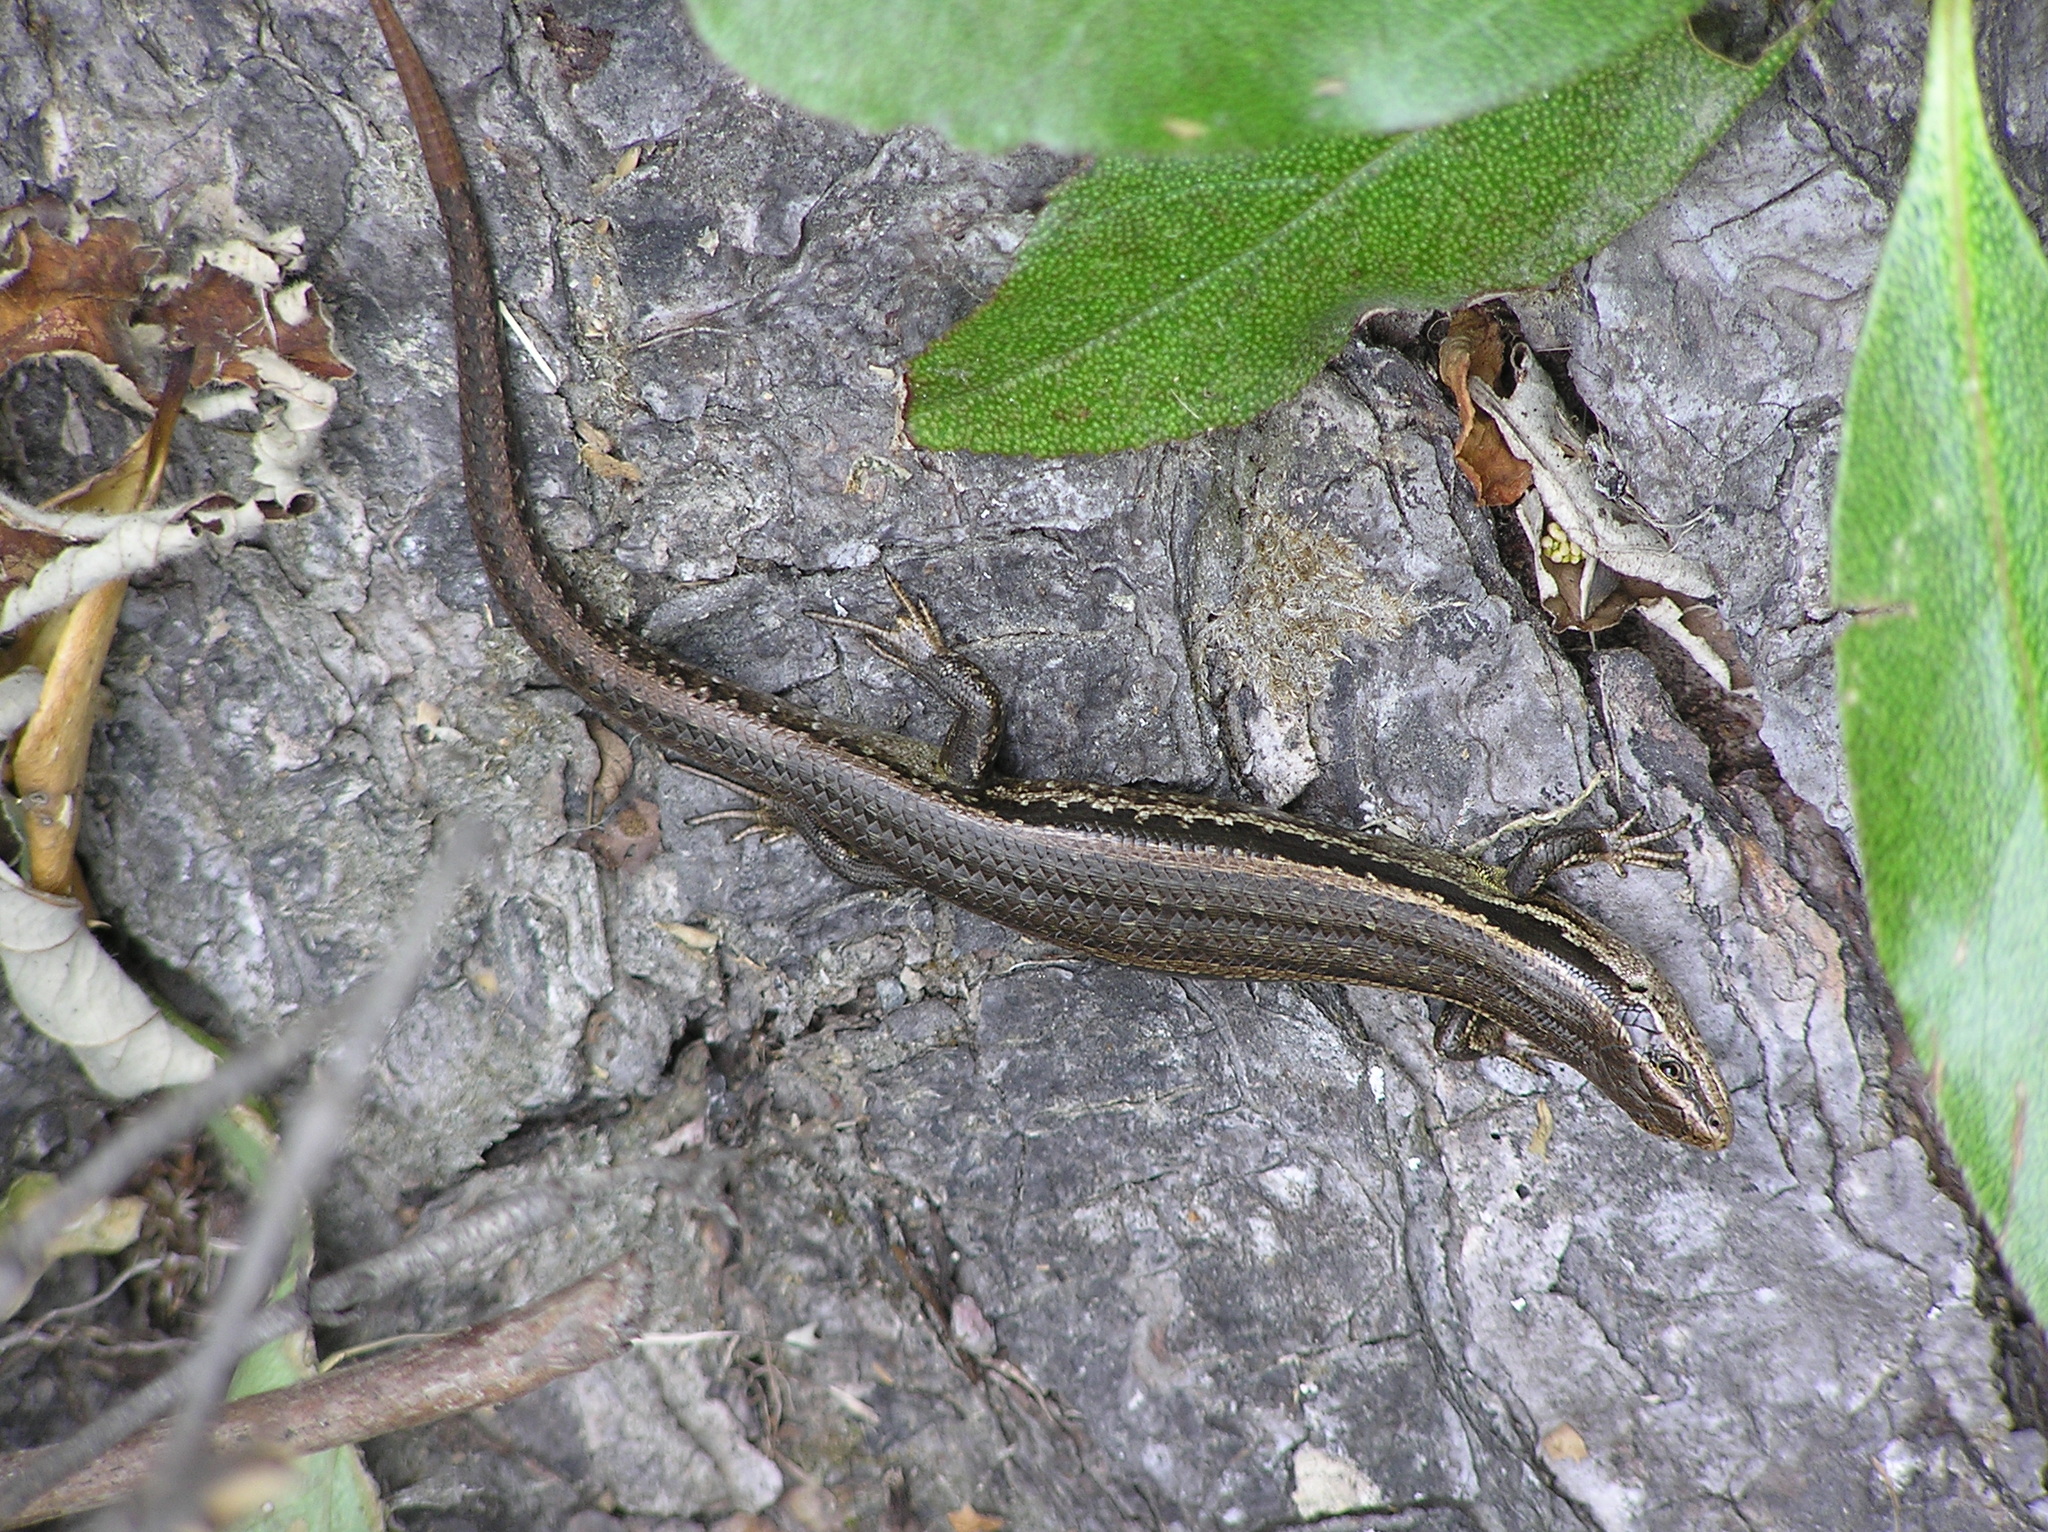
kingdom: Animalia
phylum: Chordata
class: Squamata
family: Scincidae
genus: Oligosoma
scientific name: Oligosoma polychroma
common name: Common new zealand skink
